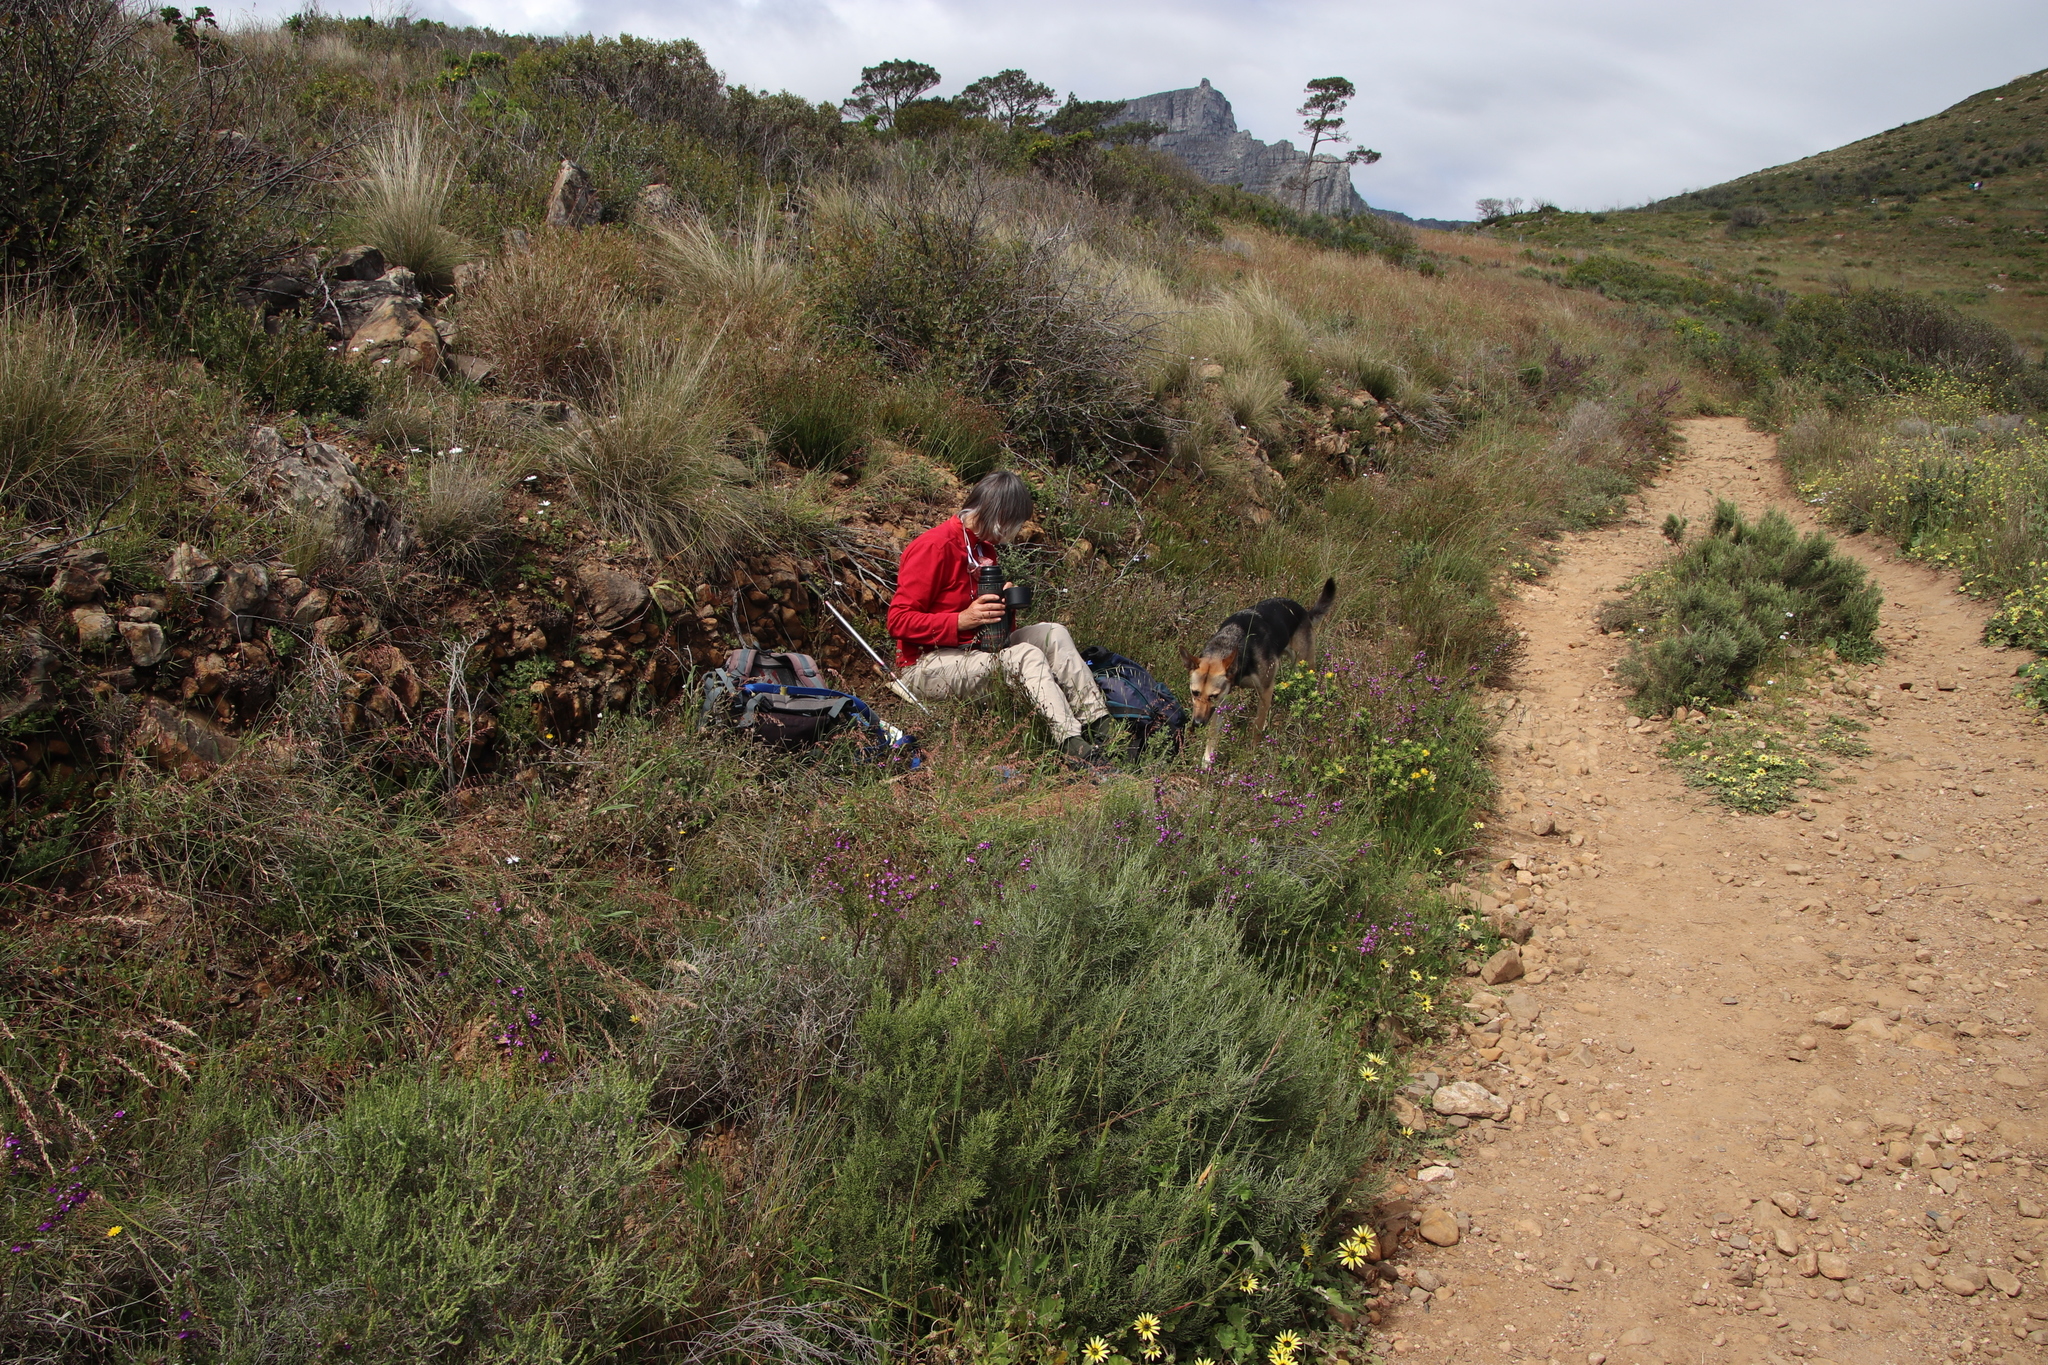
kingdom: Plantae
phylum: Tracheophyta
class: Magnoliopsida
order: Asterales
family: Asteraceae
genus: Dicerothamnus
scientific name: Dicerothamnus rhinocerotis
